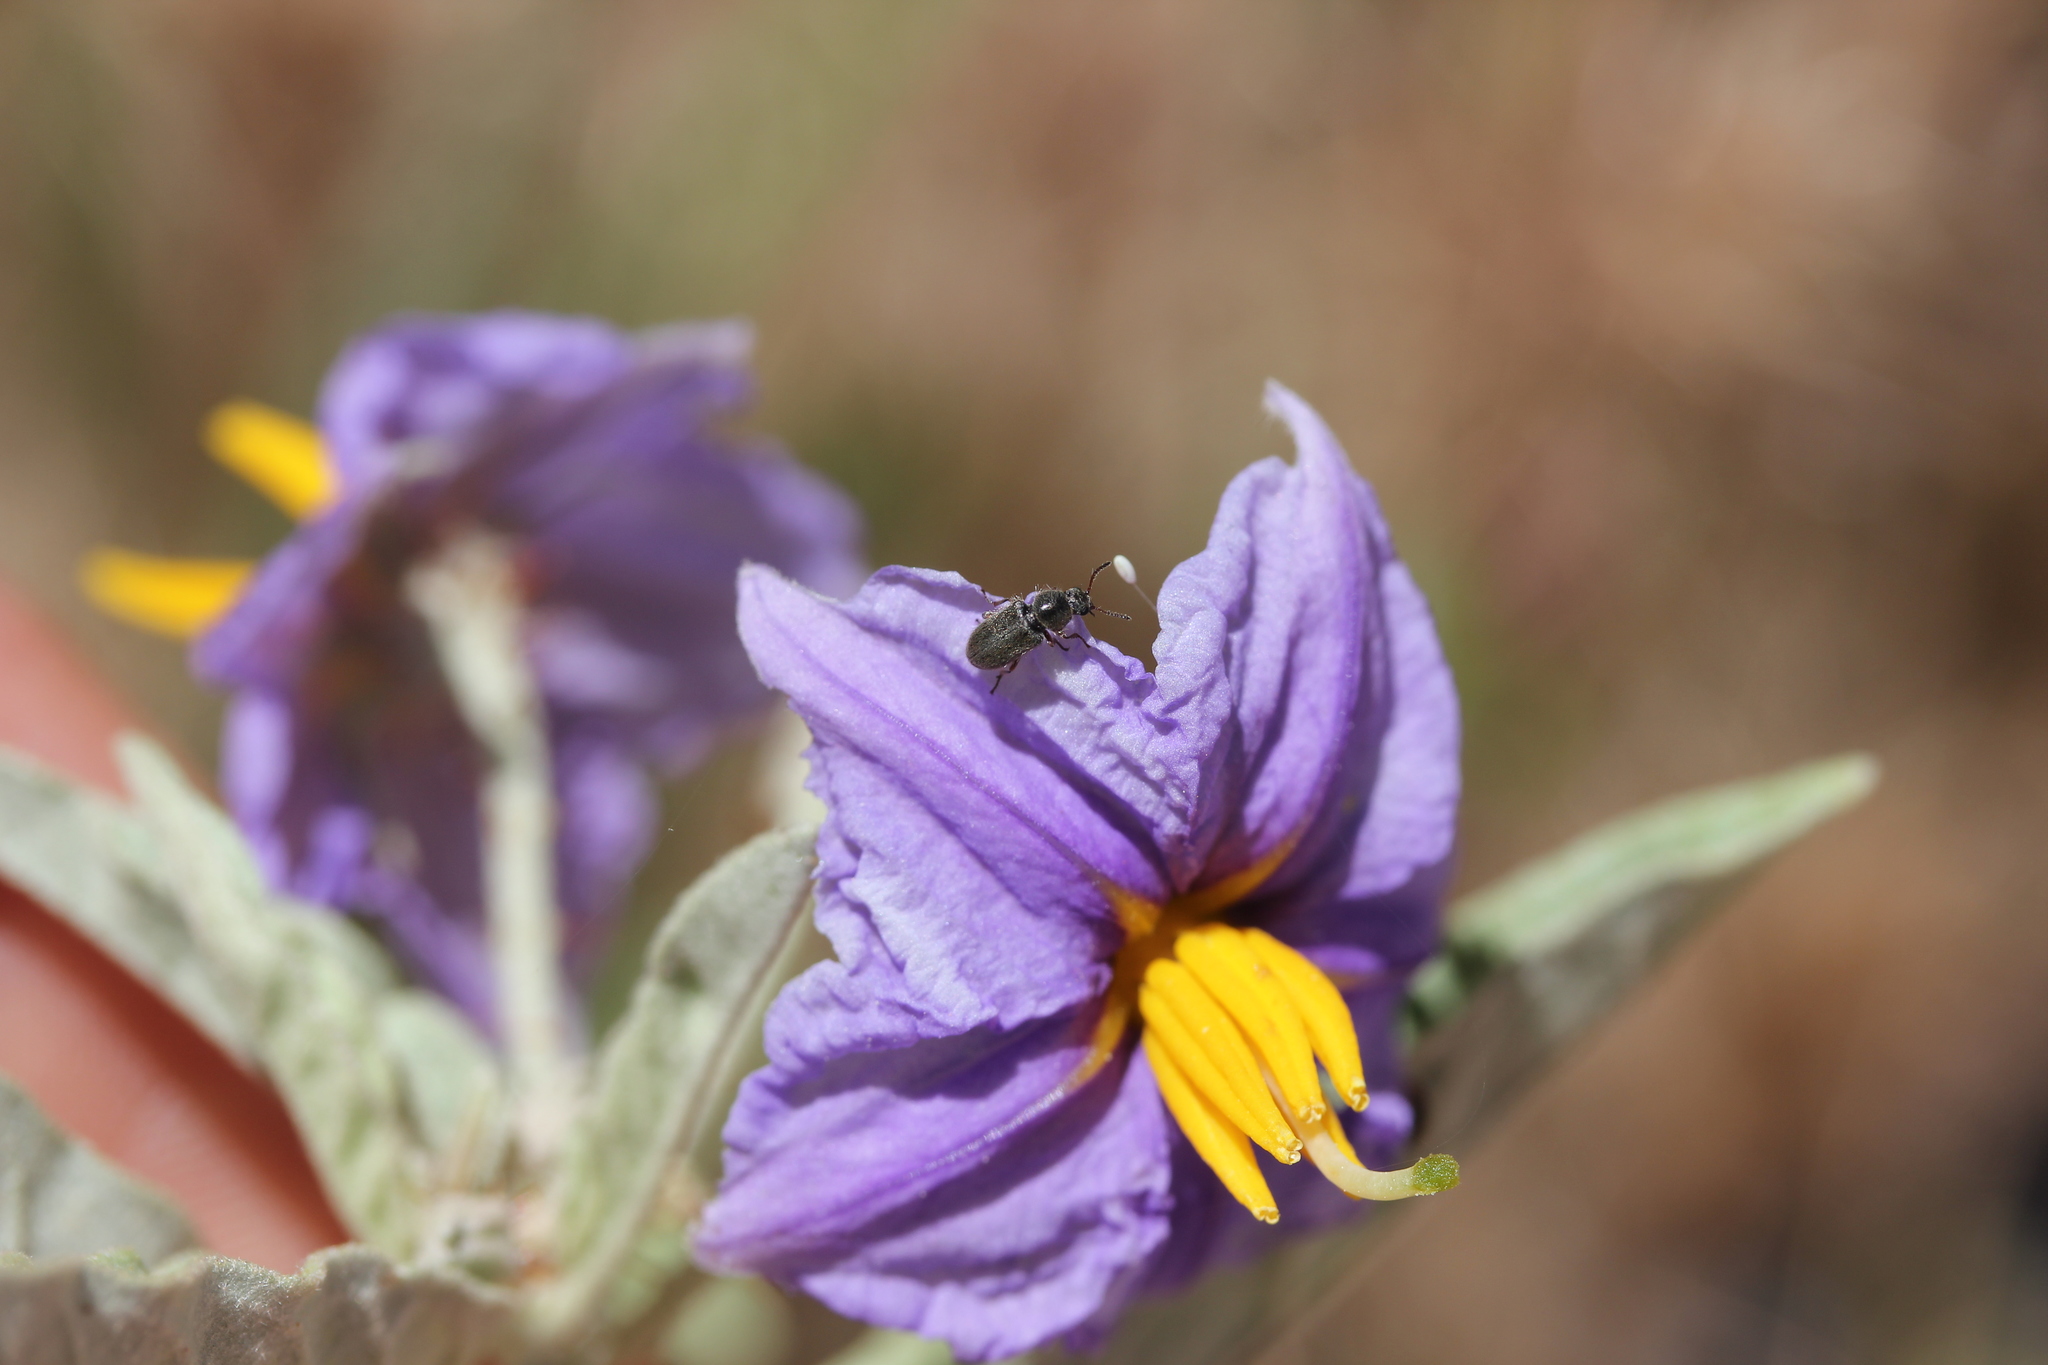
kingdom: Plantae
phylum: Tracheophyta
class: Magnoliopsida
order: Solanales
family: Solanaceae
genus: Solanum
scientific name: Solanum elaeagnifolium
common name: Silverleaf nightshade
